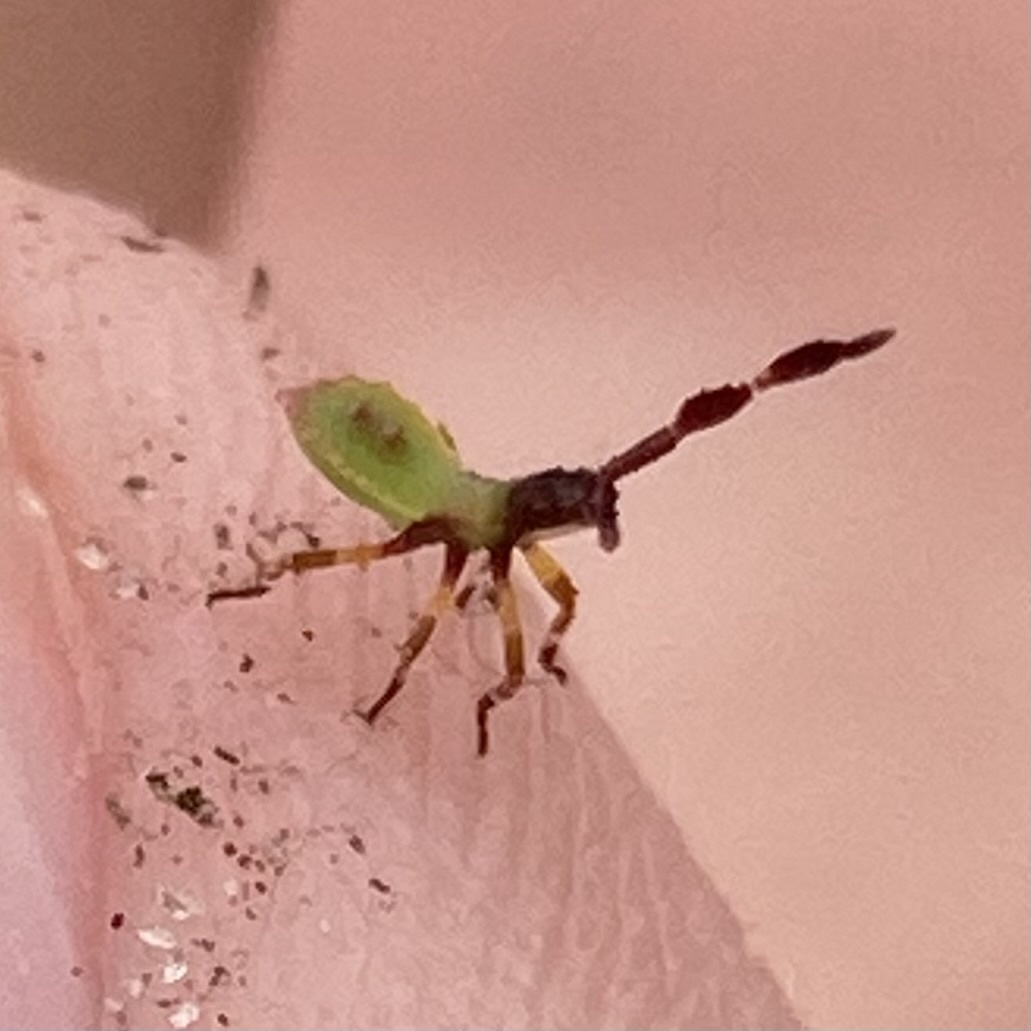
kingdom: Animalia
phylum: Arthropoda
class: Insecta
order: Hemiptera
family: Coreidae
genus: Chariesterus
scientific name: Chariesterus antennator
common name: Flat horned coreid
